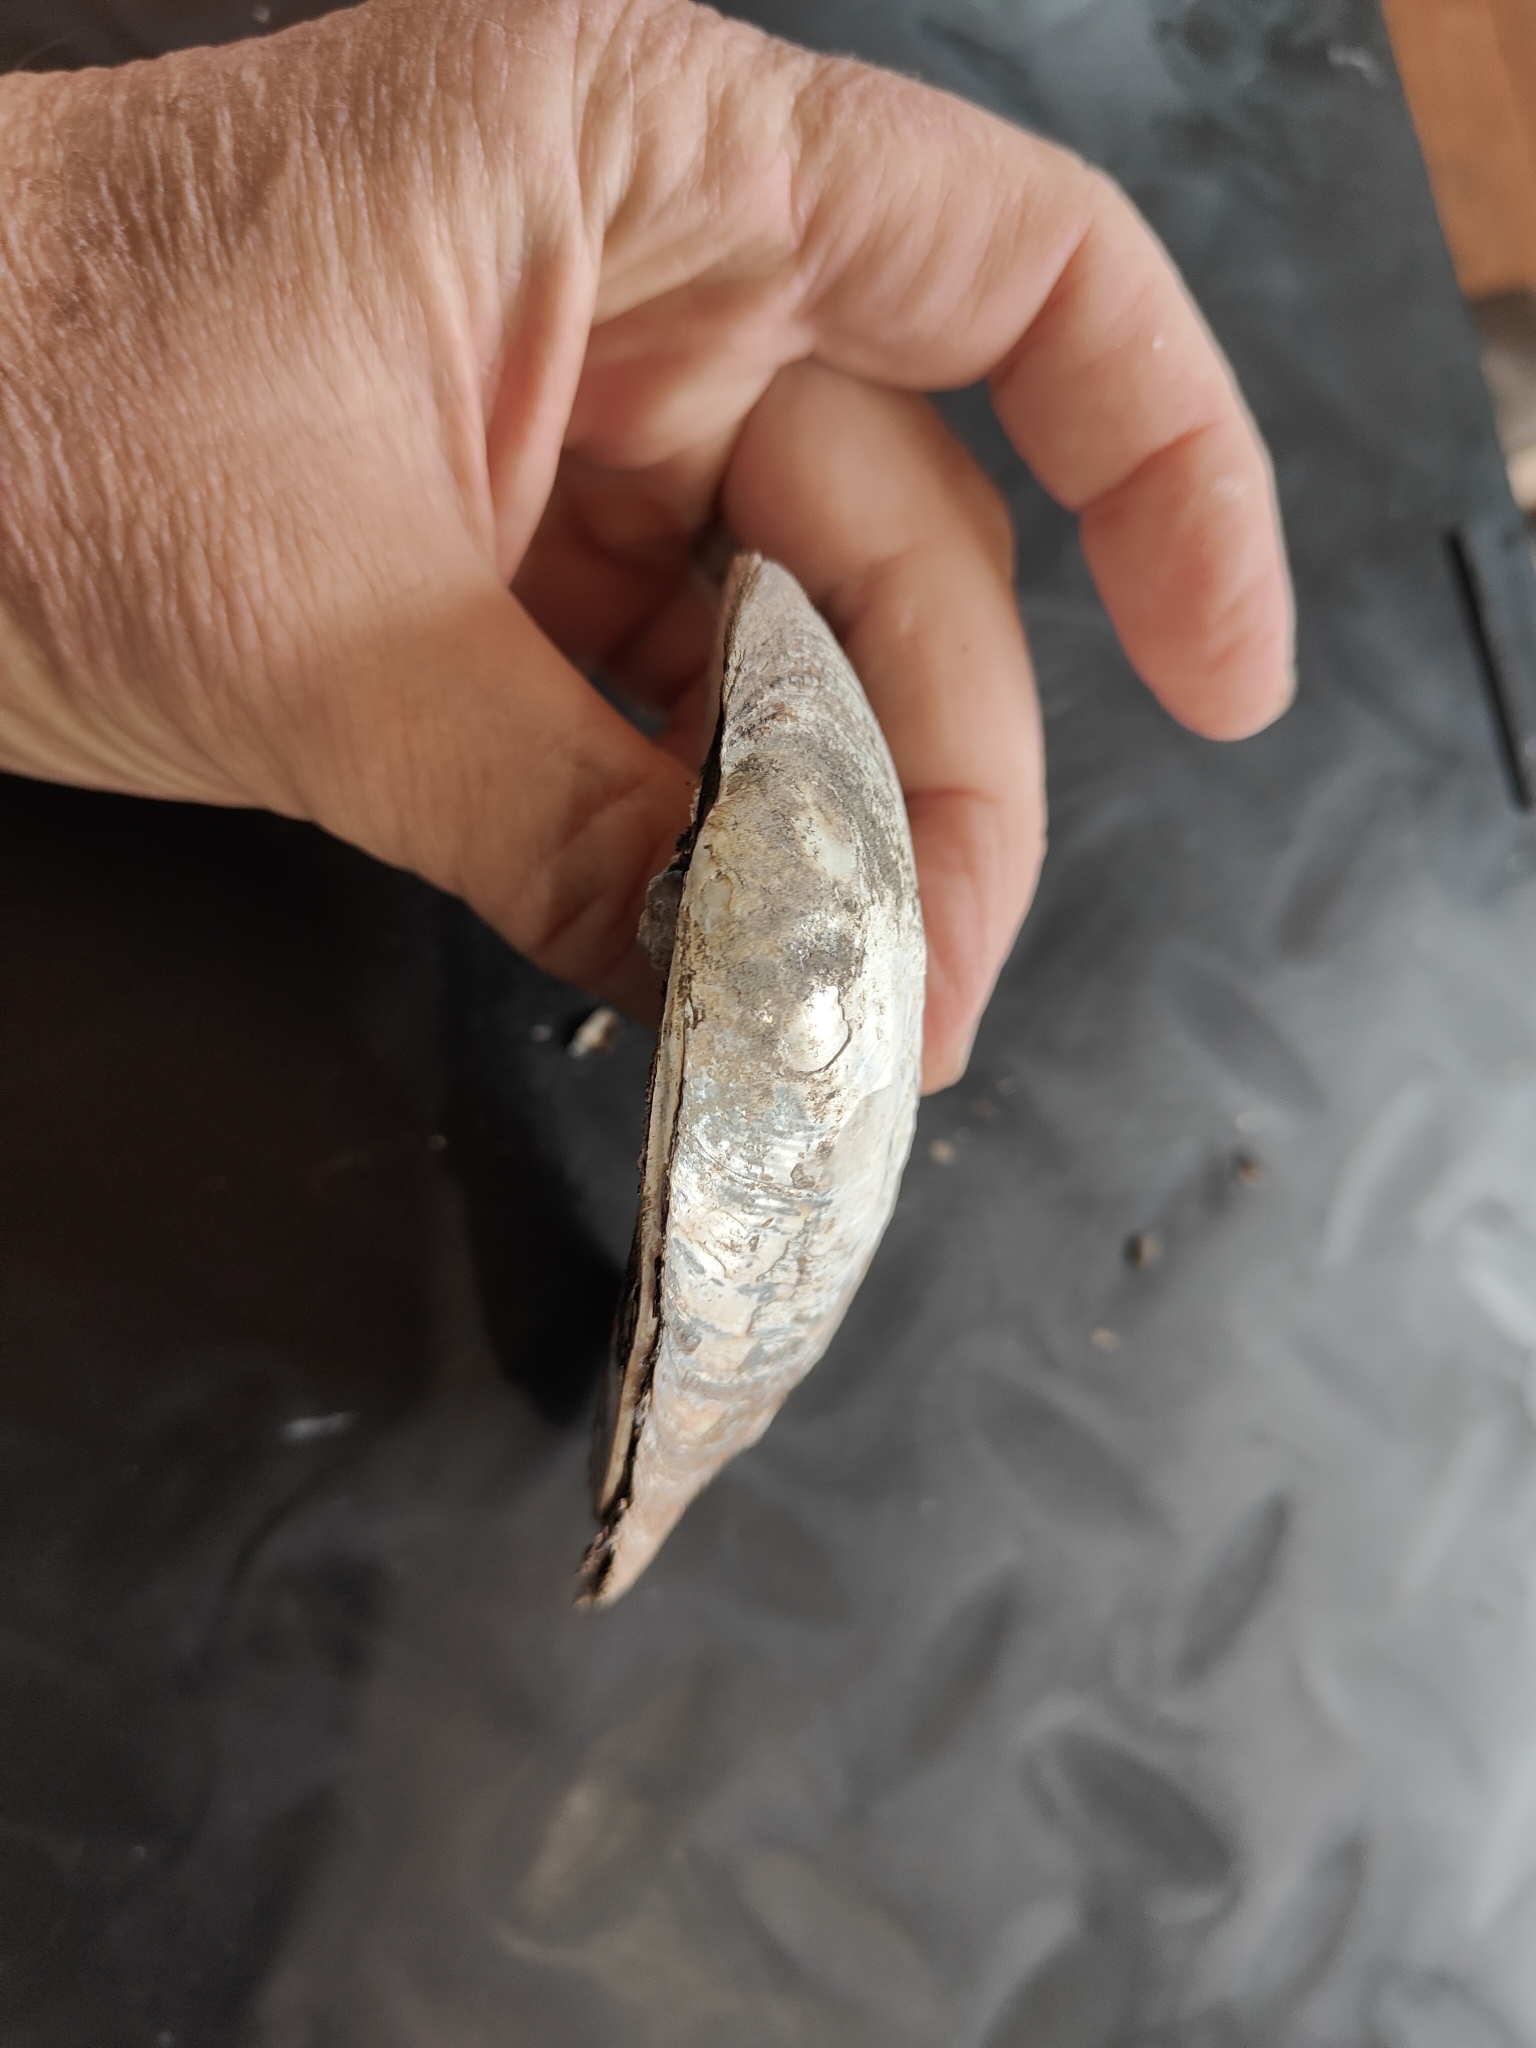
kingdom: Animalia
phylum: Mollusca
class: Bivalvia
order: Unionida
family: Unionidae
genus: Amblema
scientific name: Amblema plicata
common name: Threeridge
